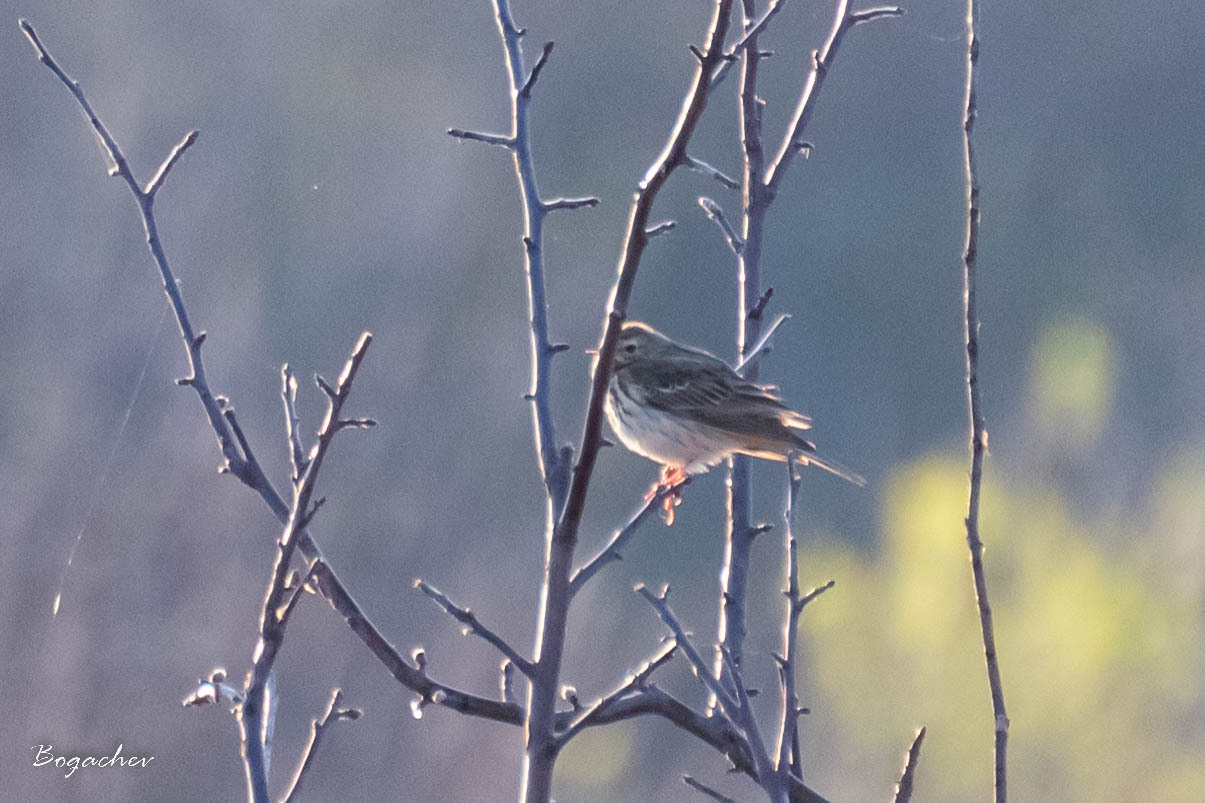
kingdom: Animalia
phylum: Chordata
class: Aves
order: Passeriformes
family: Motacillidae
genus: Anthus
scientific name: Anthus trivialis
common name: Tree pipit
